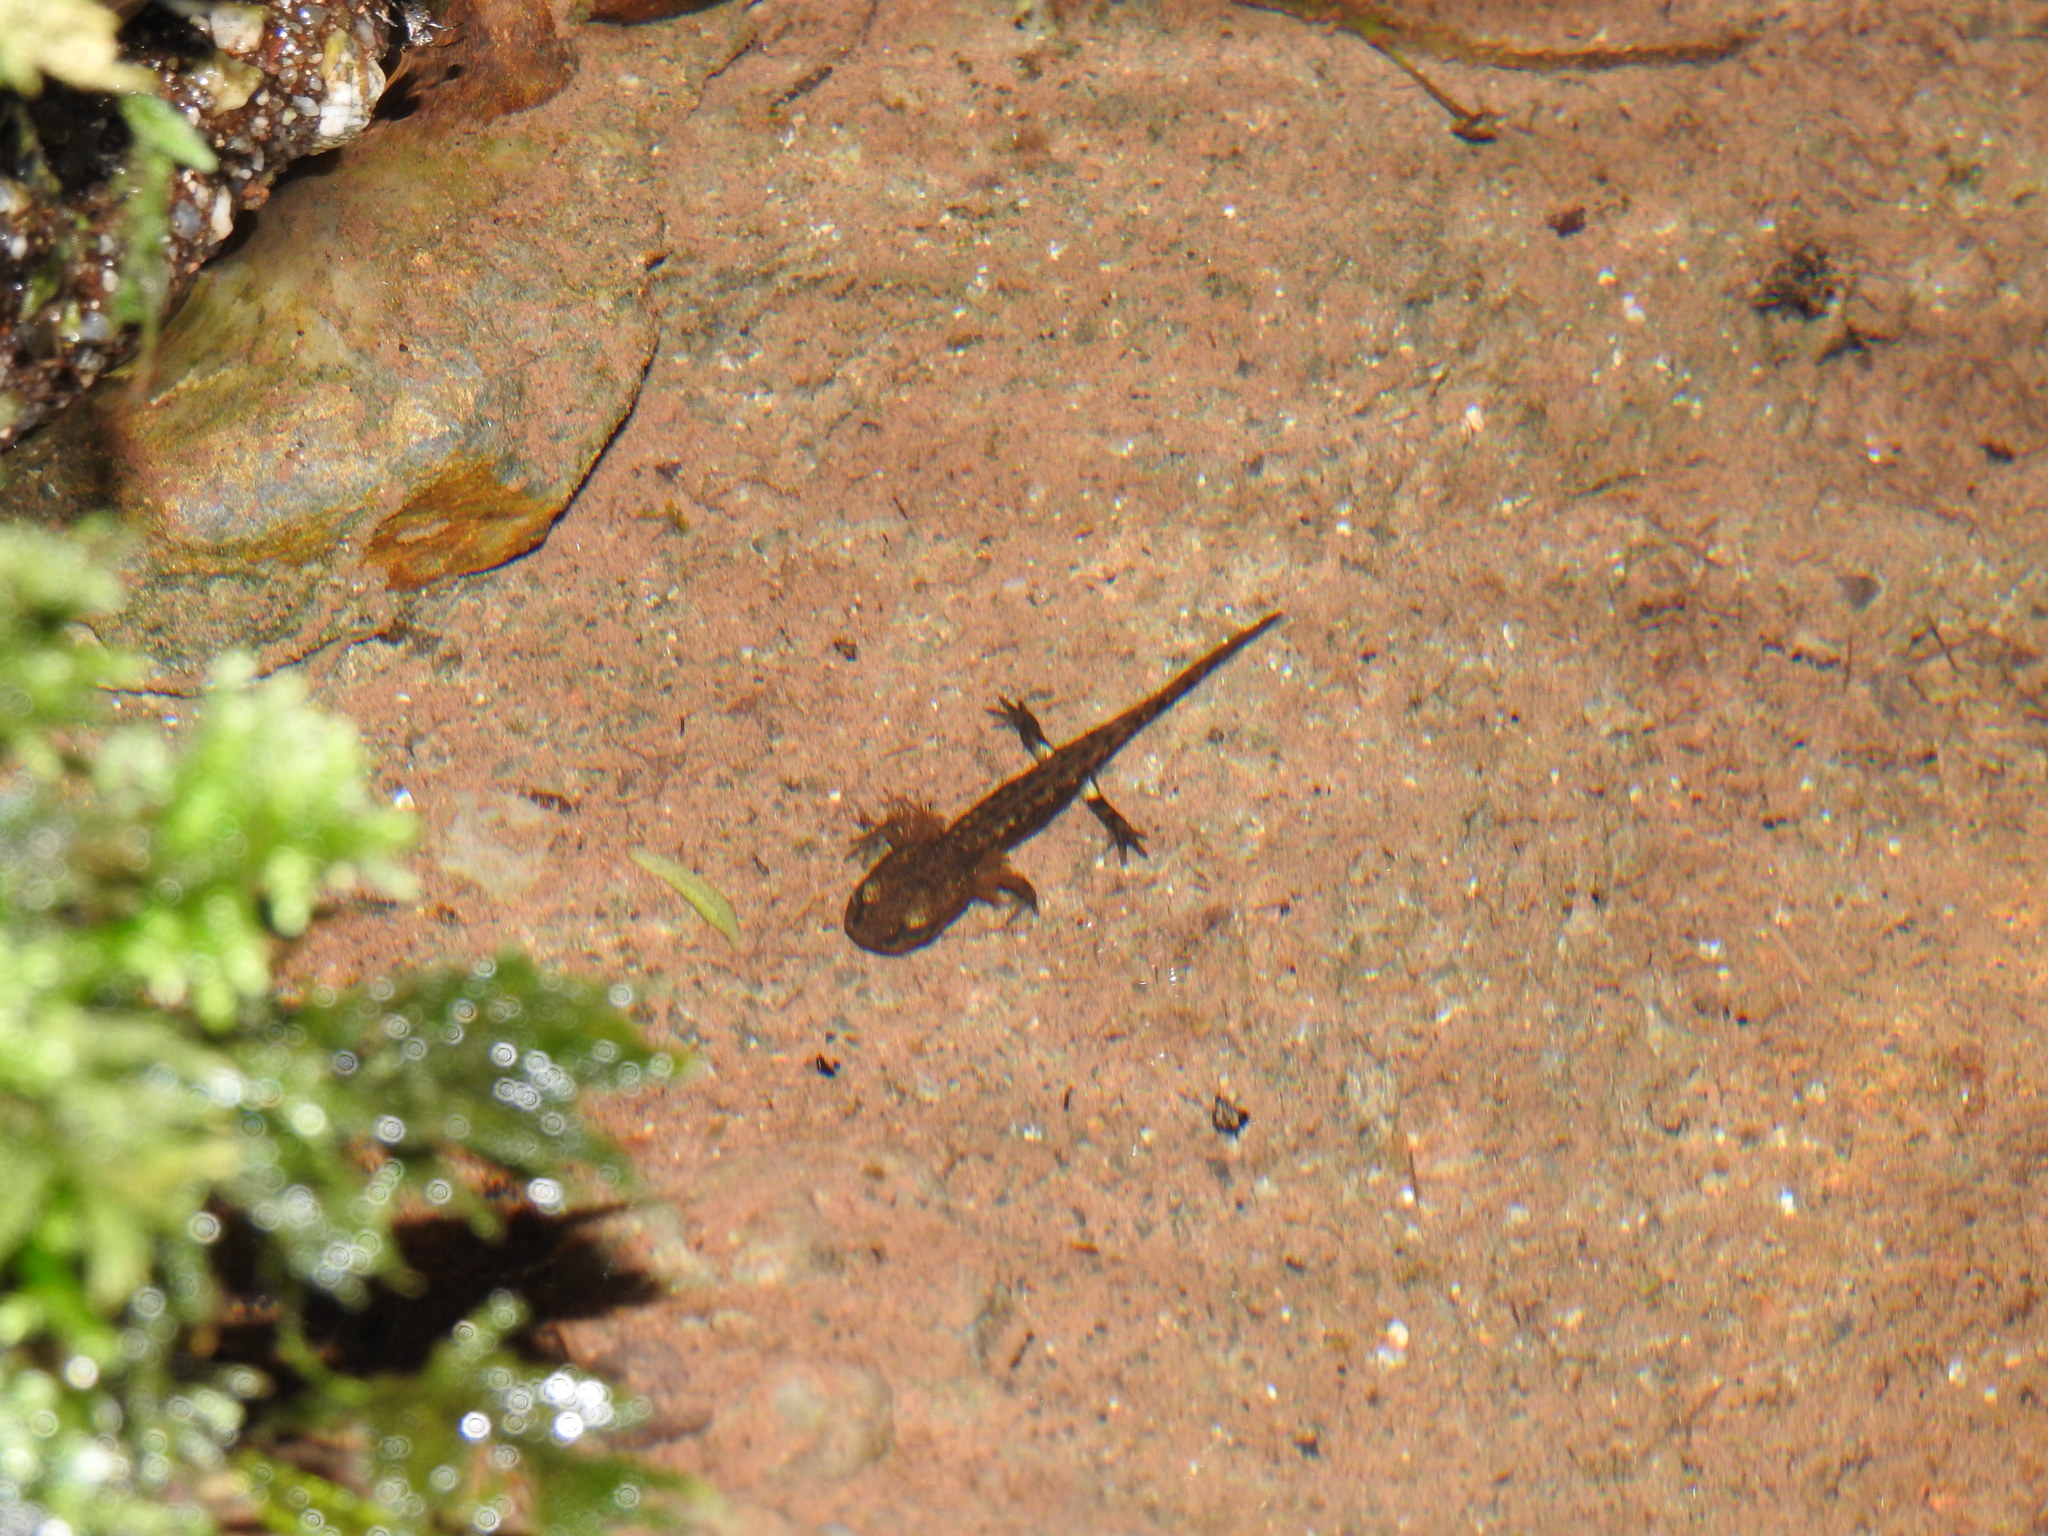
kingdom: Animalia
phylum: Chordata
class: Amphibia
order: Caudata
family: Salamandridae
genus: Salamandra
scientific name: Salamandra salamandra
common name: Fire salamander
